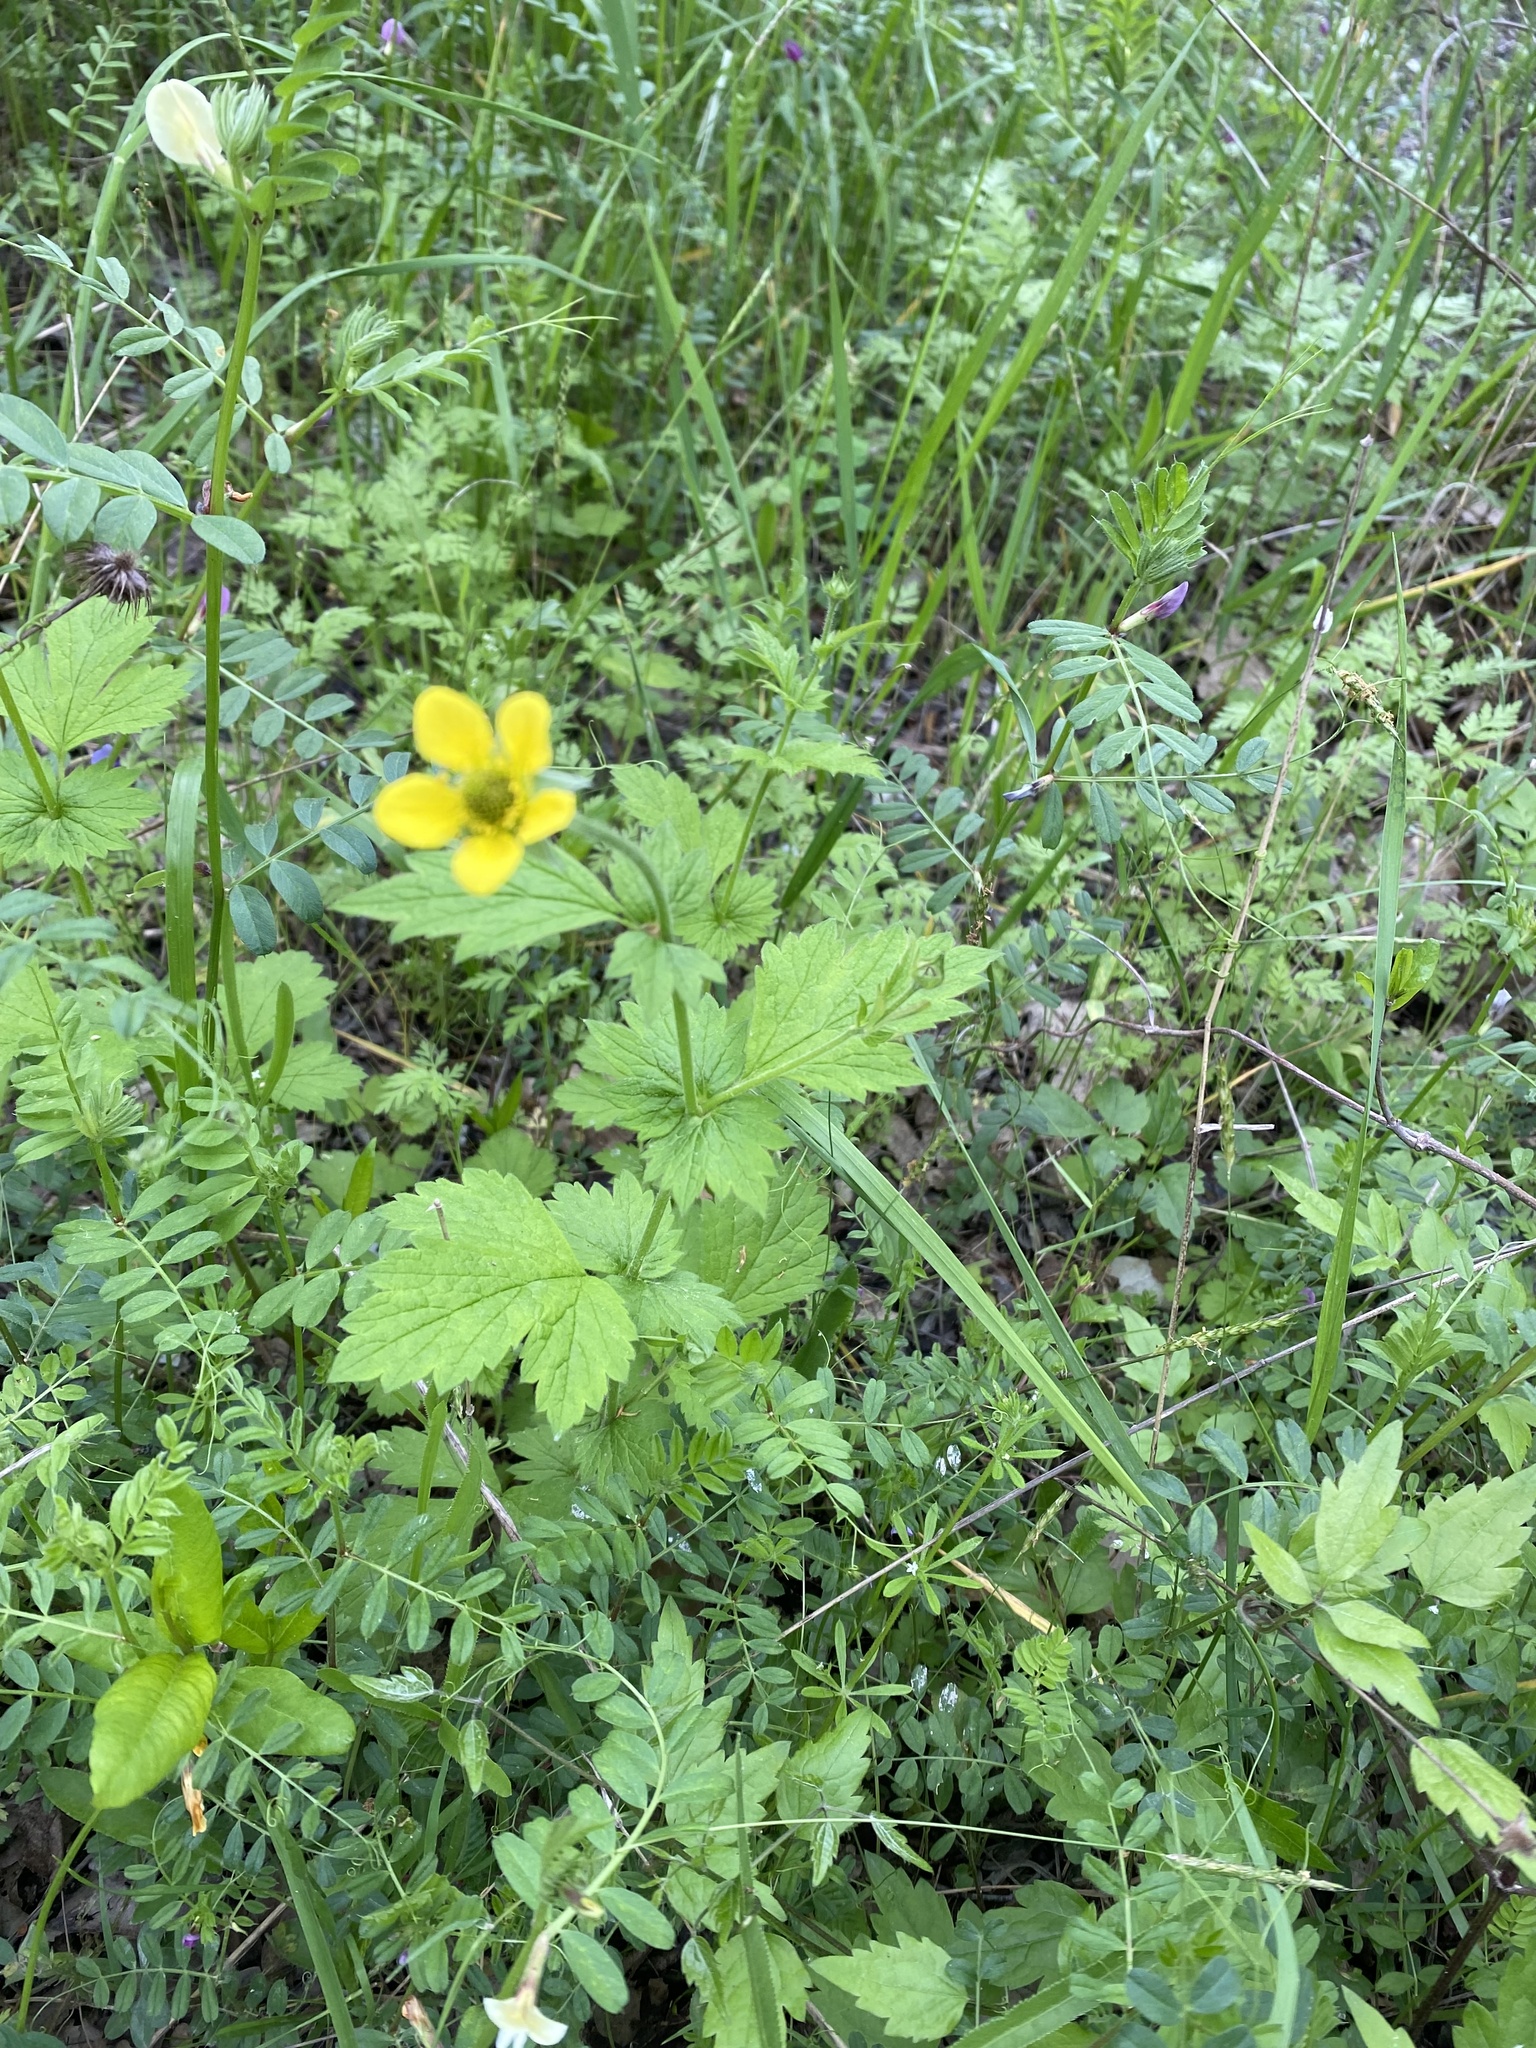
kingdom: Plantae
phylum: Tracheophyta
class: Magnoliopsida
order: Rosales
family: Rosaceae
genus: Geum
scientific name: Geum urbanum
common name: Wood avens
